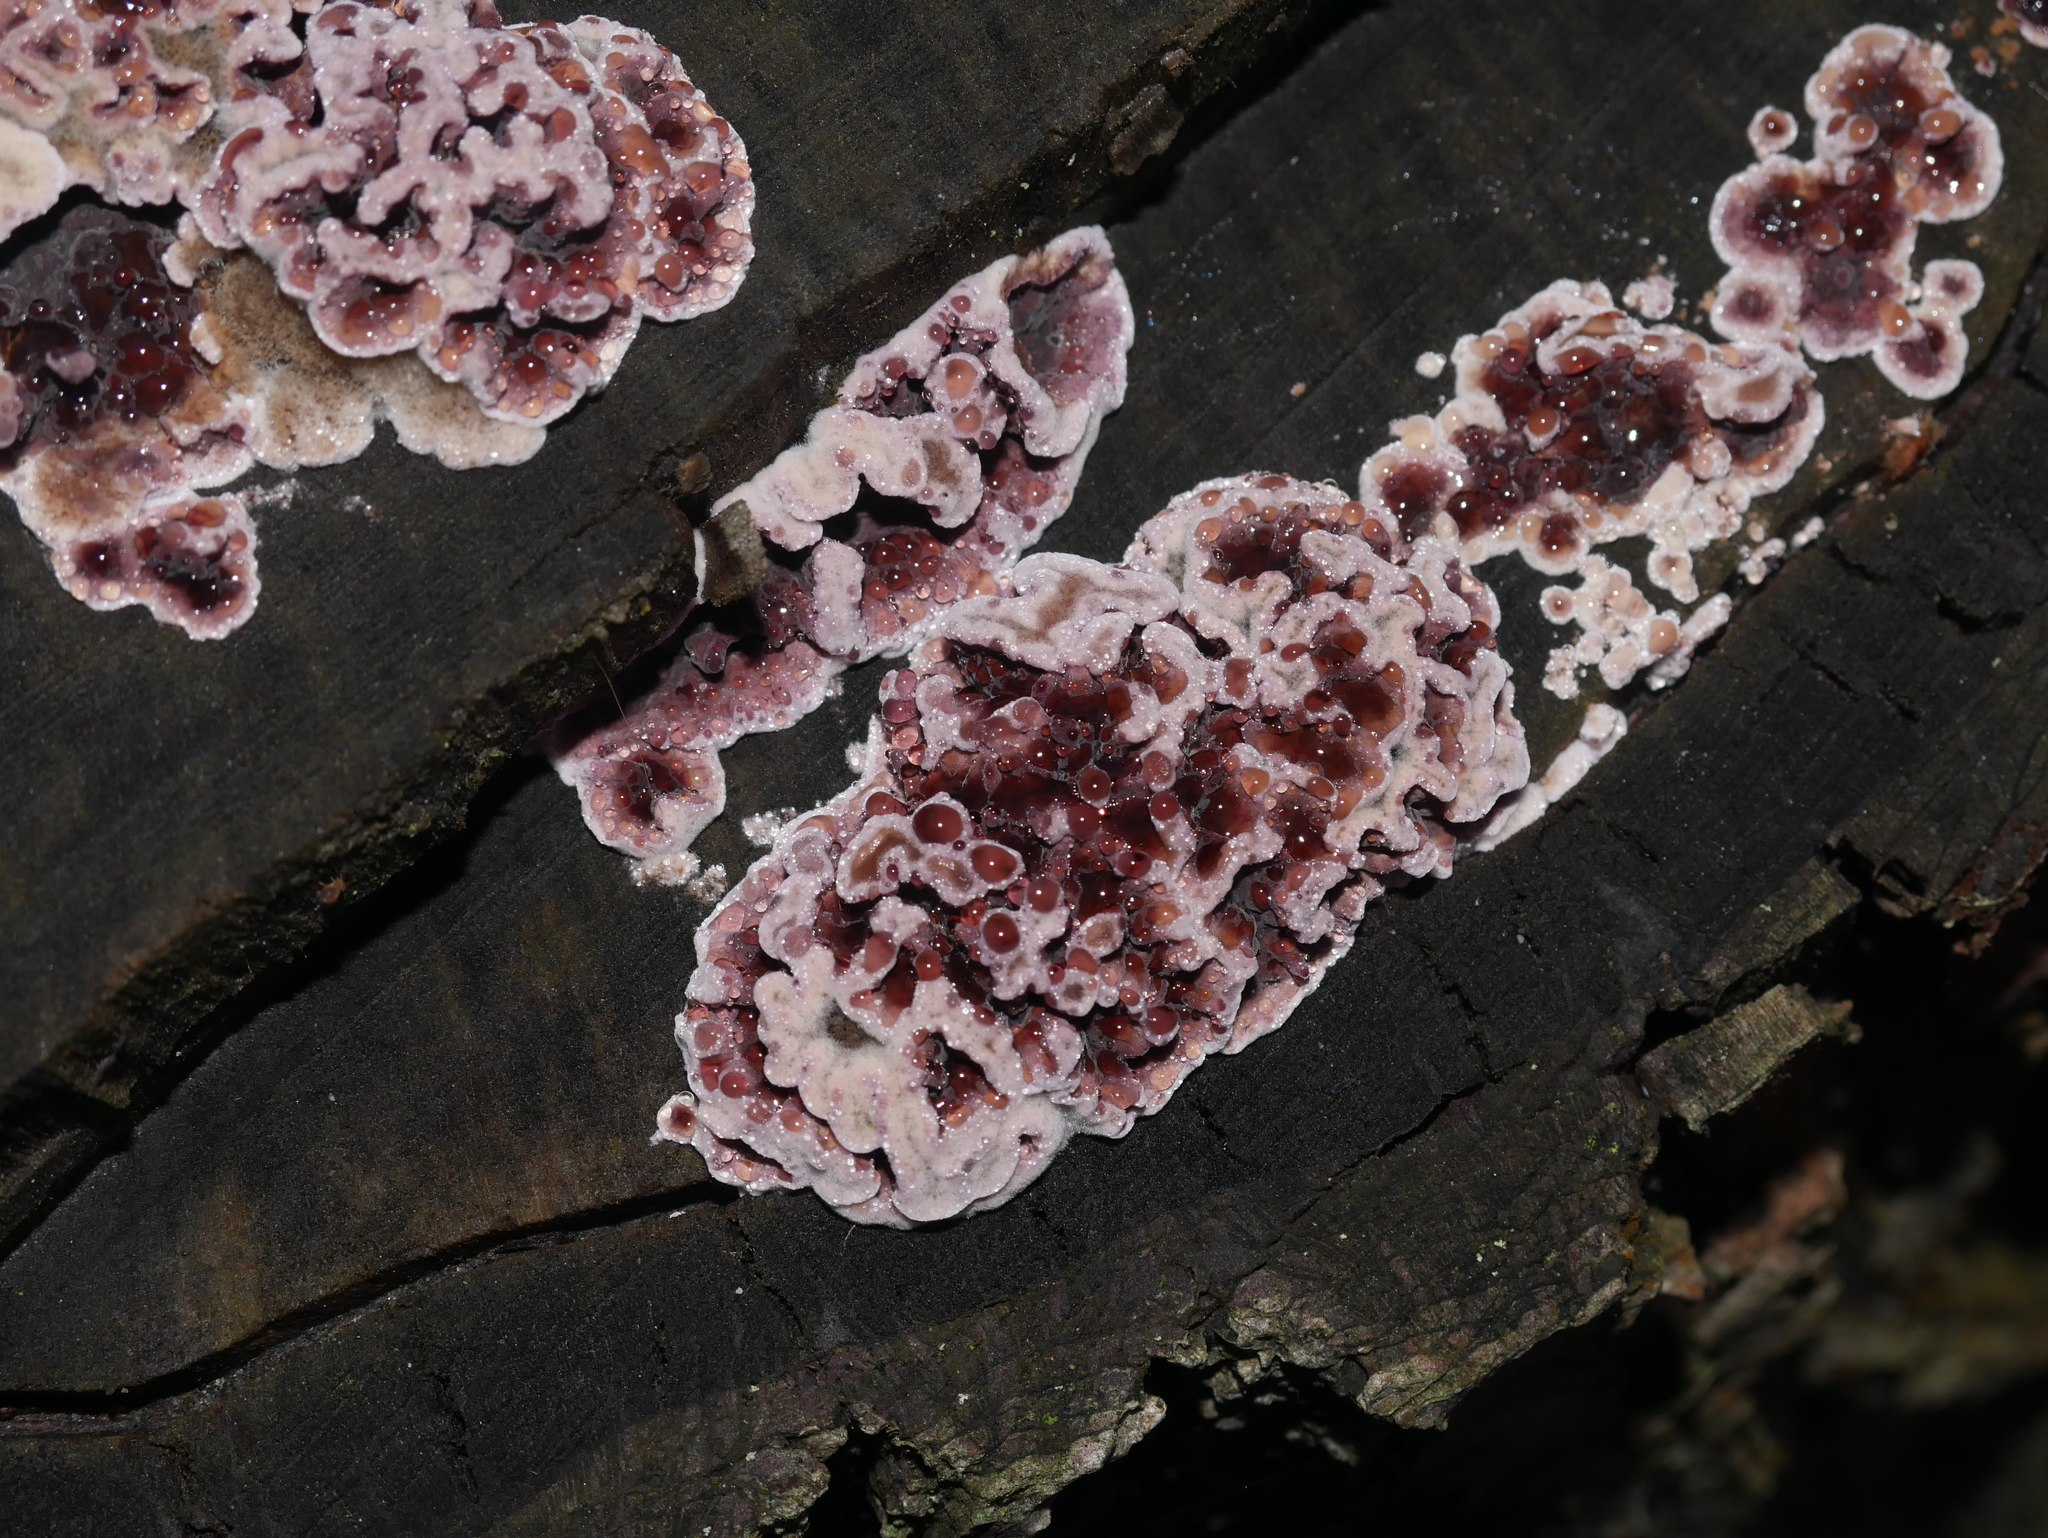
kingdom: Fungi
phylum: Basidiomycota
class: Agaricomycetes
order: Agaricales
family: Cyphellaceae
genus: Chondrostereum
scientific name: Chondrostereum purpureum
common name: Silver leaf disease
